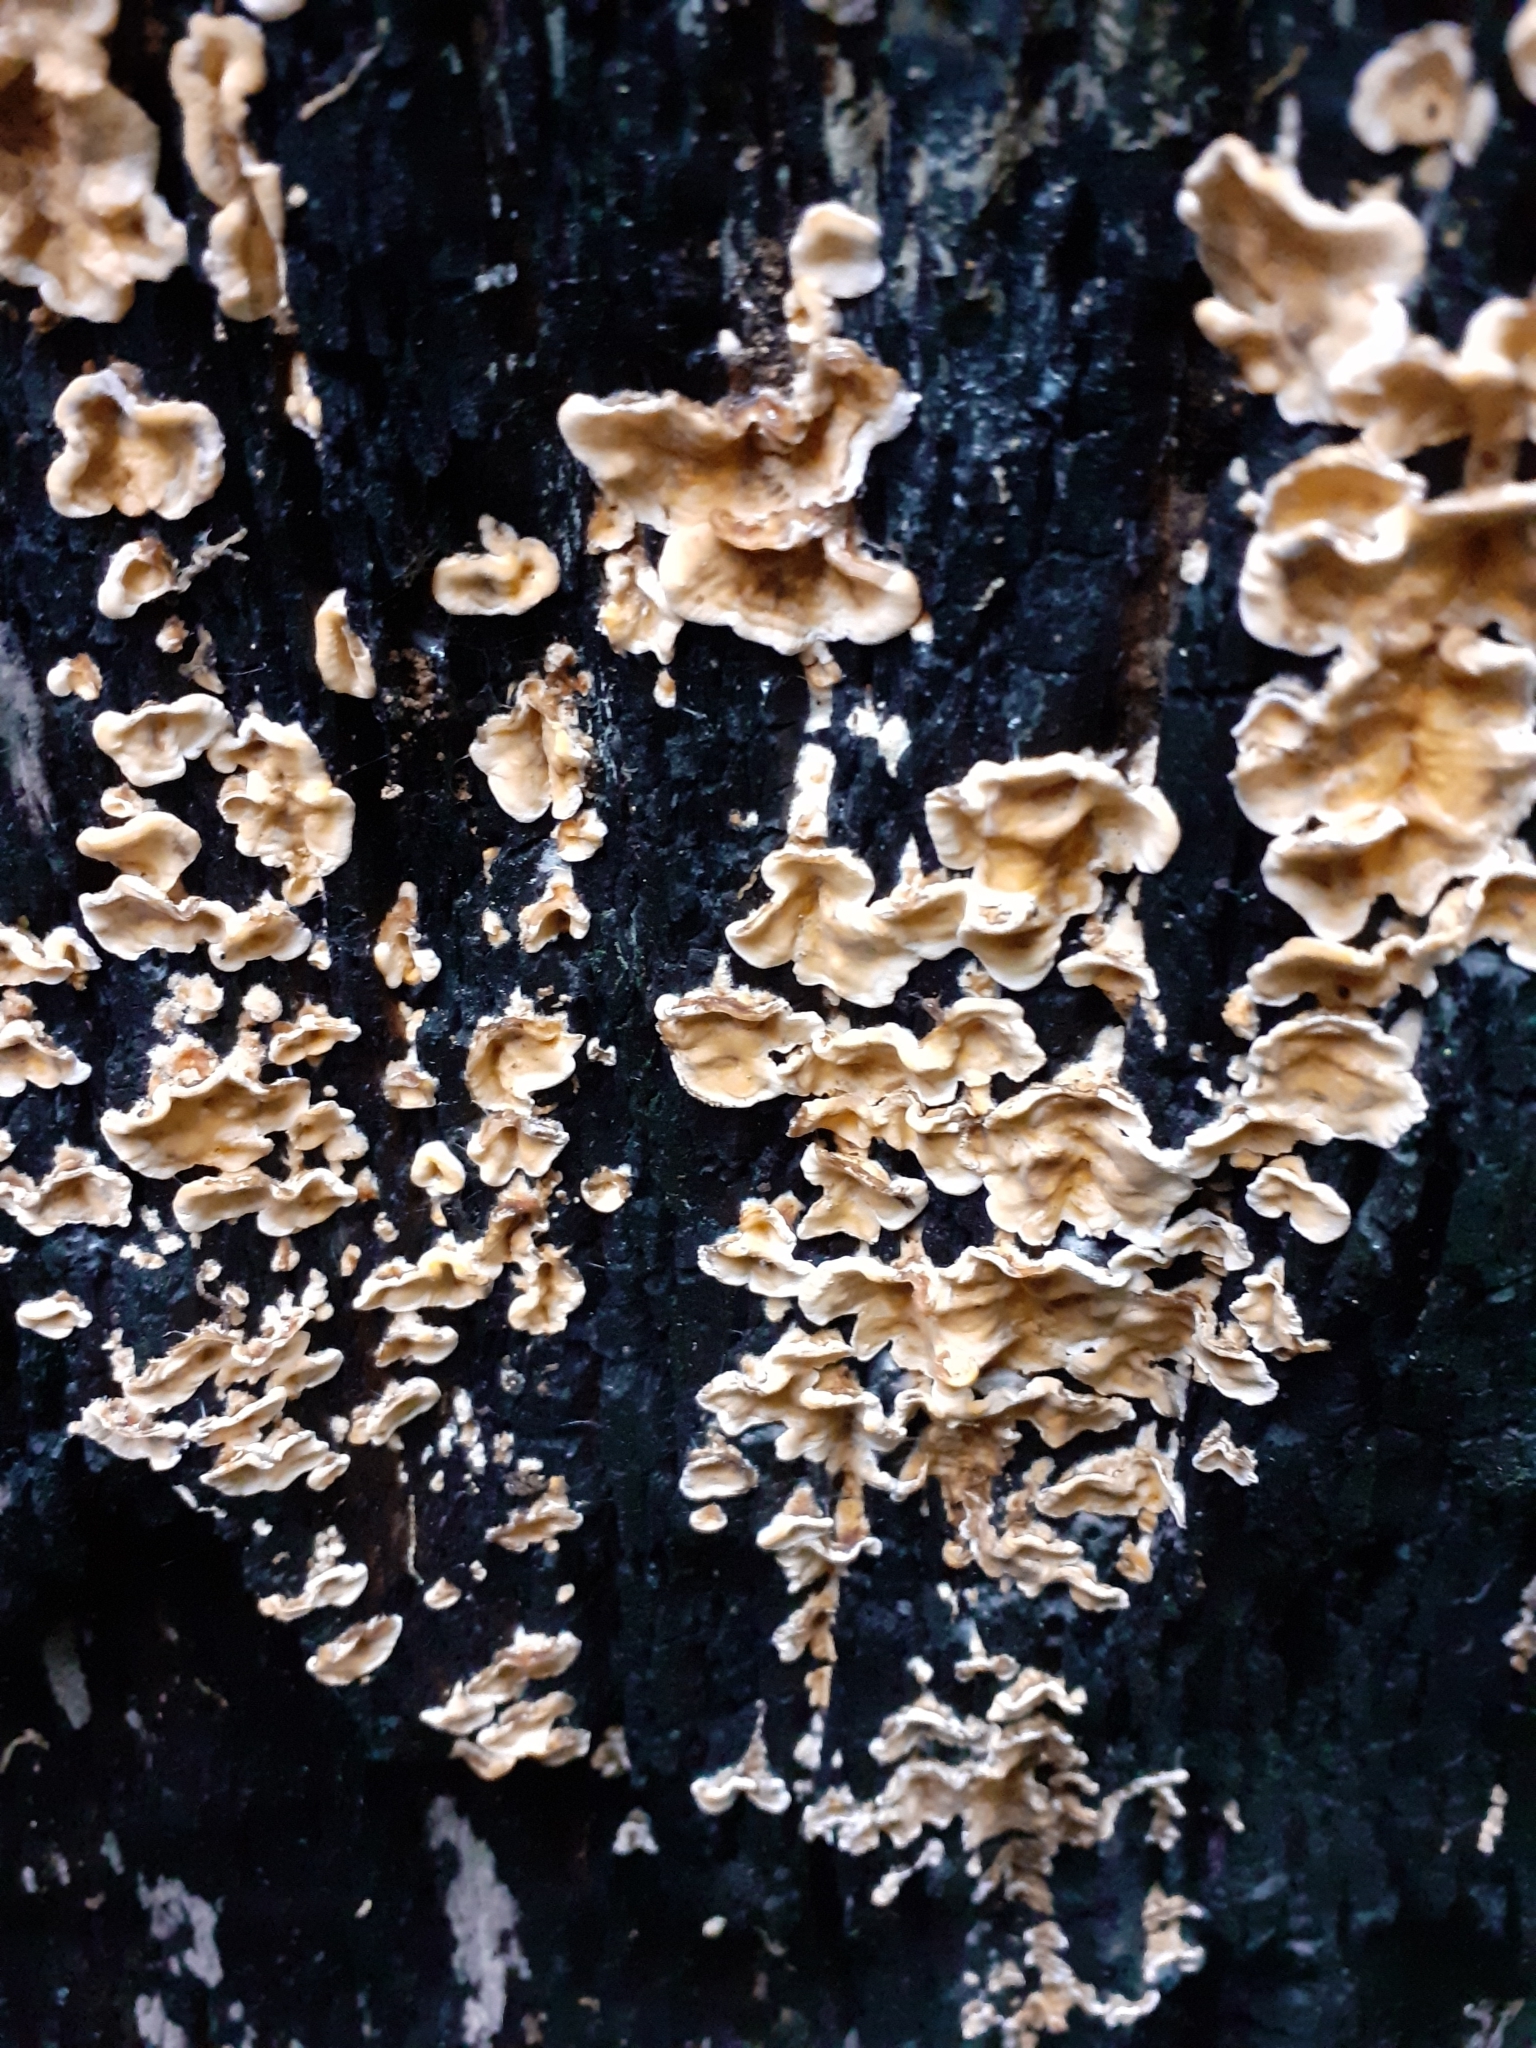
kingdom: Fungi
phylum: Basidiomycota
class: Agaricomycetes
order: Russulales
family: Stereaceae
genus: Stereum
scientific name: Stereum hirsutum
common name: Hairy curtain crust
